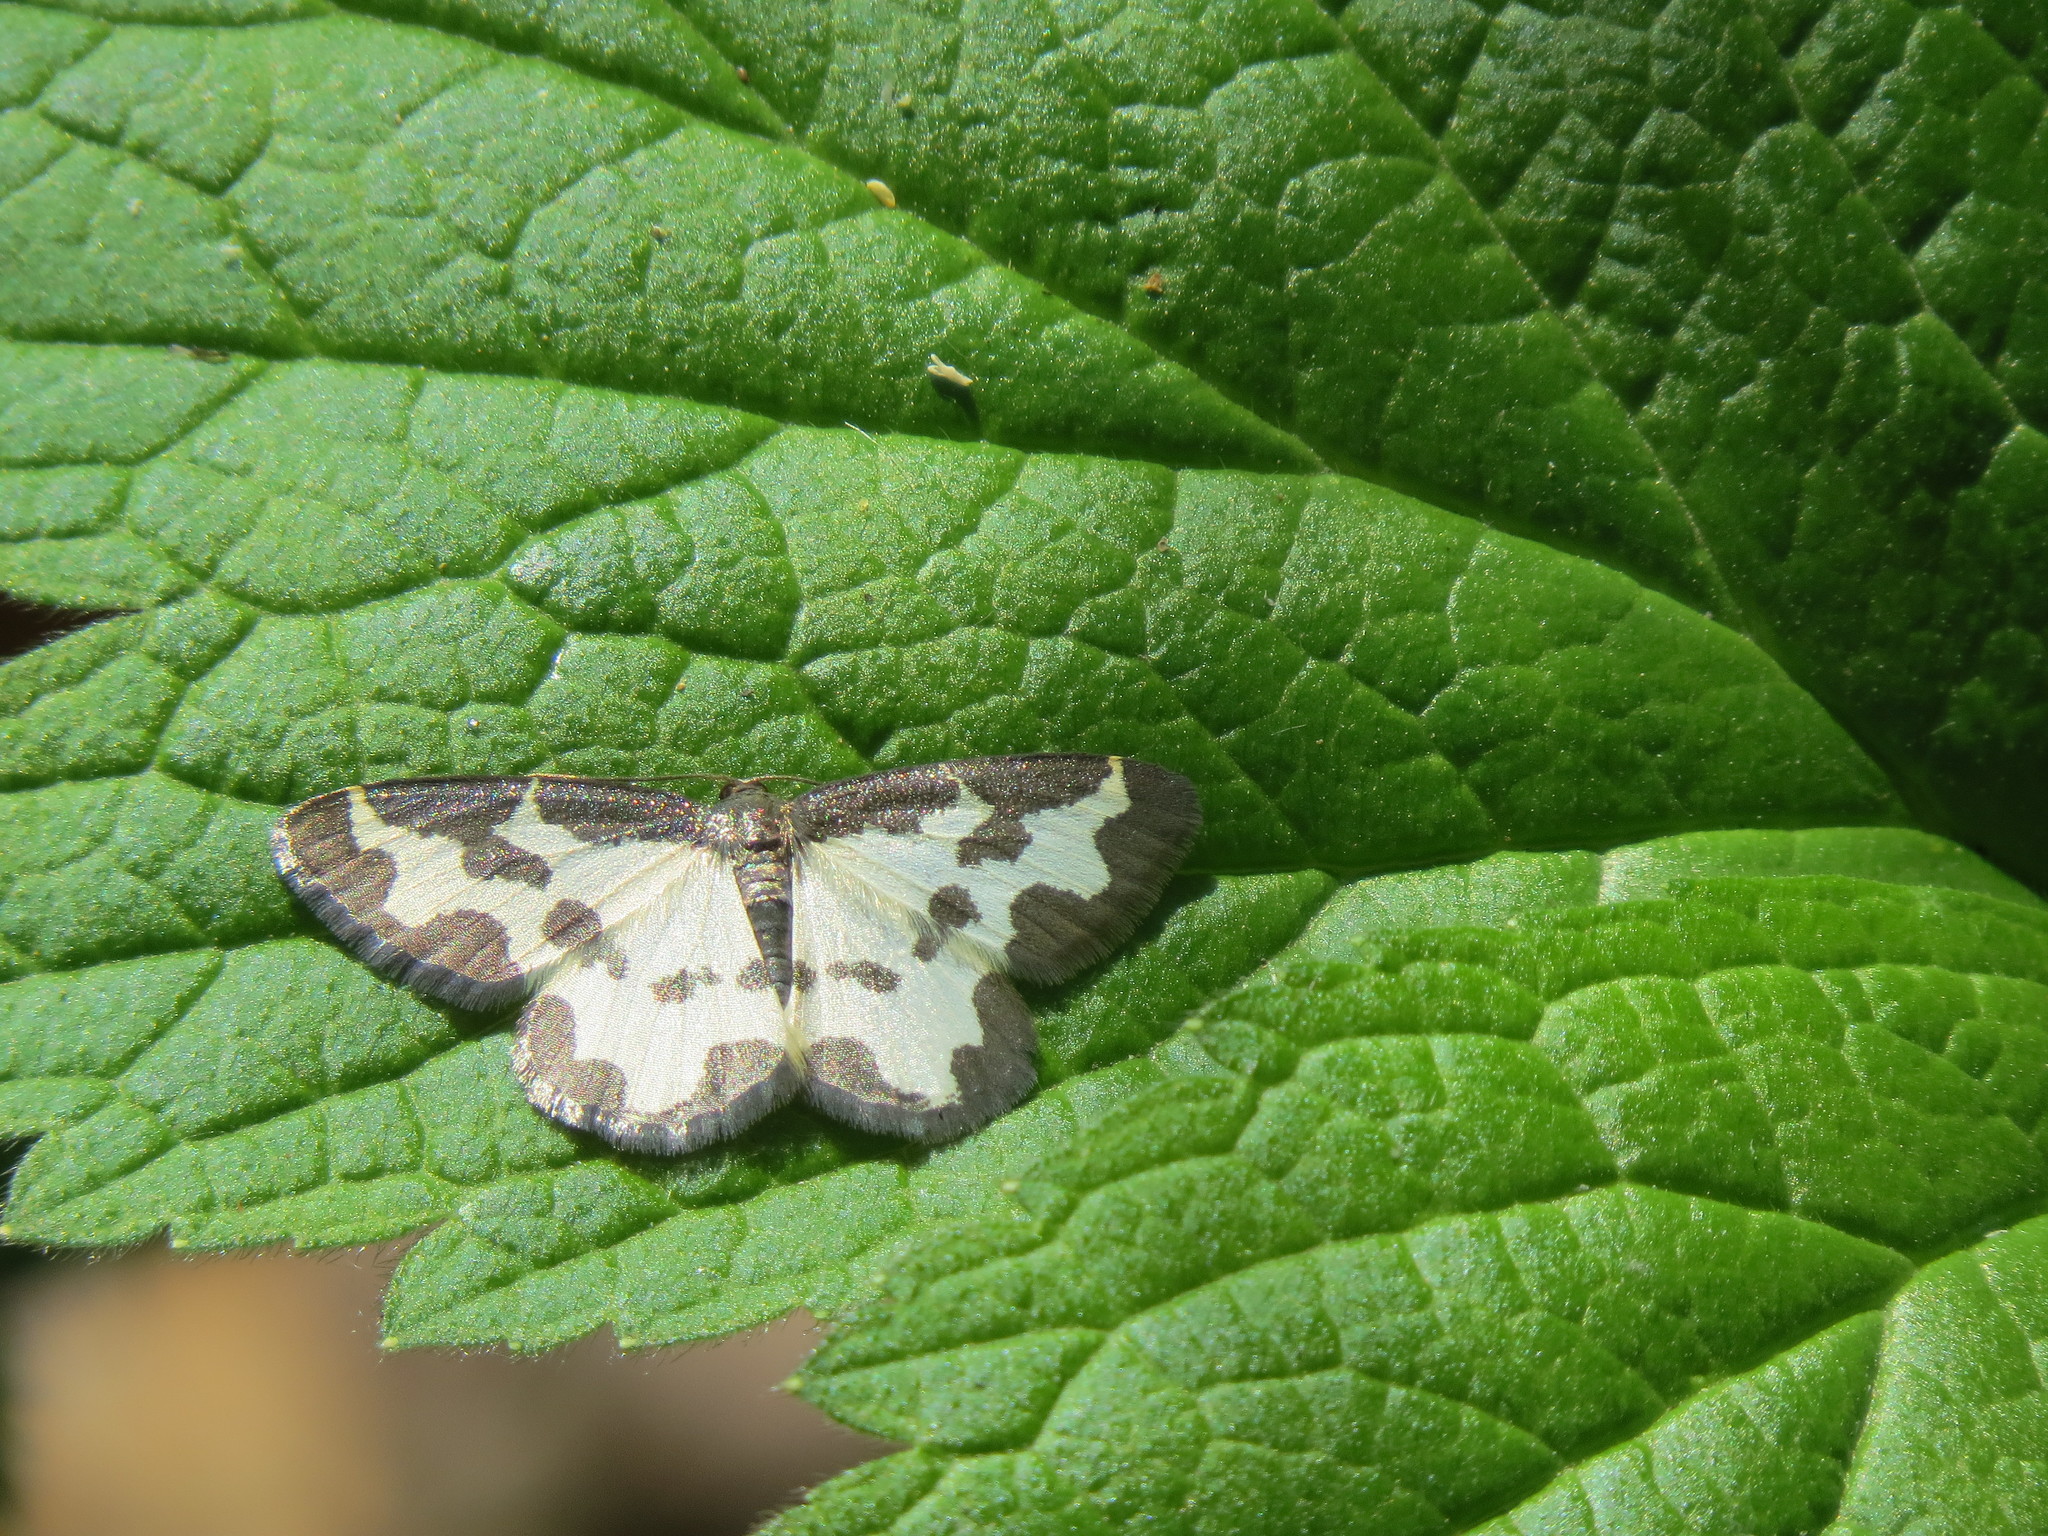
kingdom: Animalia
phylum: Arthropoda
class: Insecta
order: Lepidoptera
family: Geometridae
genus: Lomaspilis
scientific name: Lomaspilis marginata
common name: Clouded border
